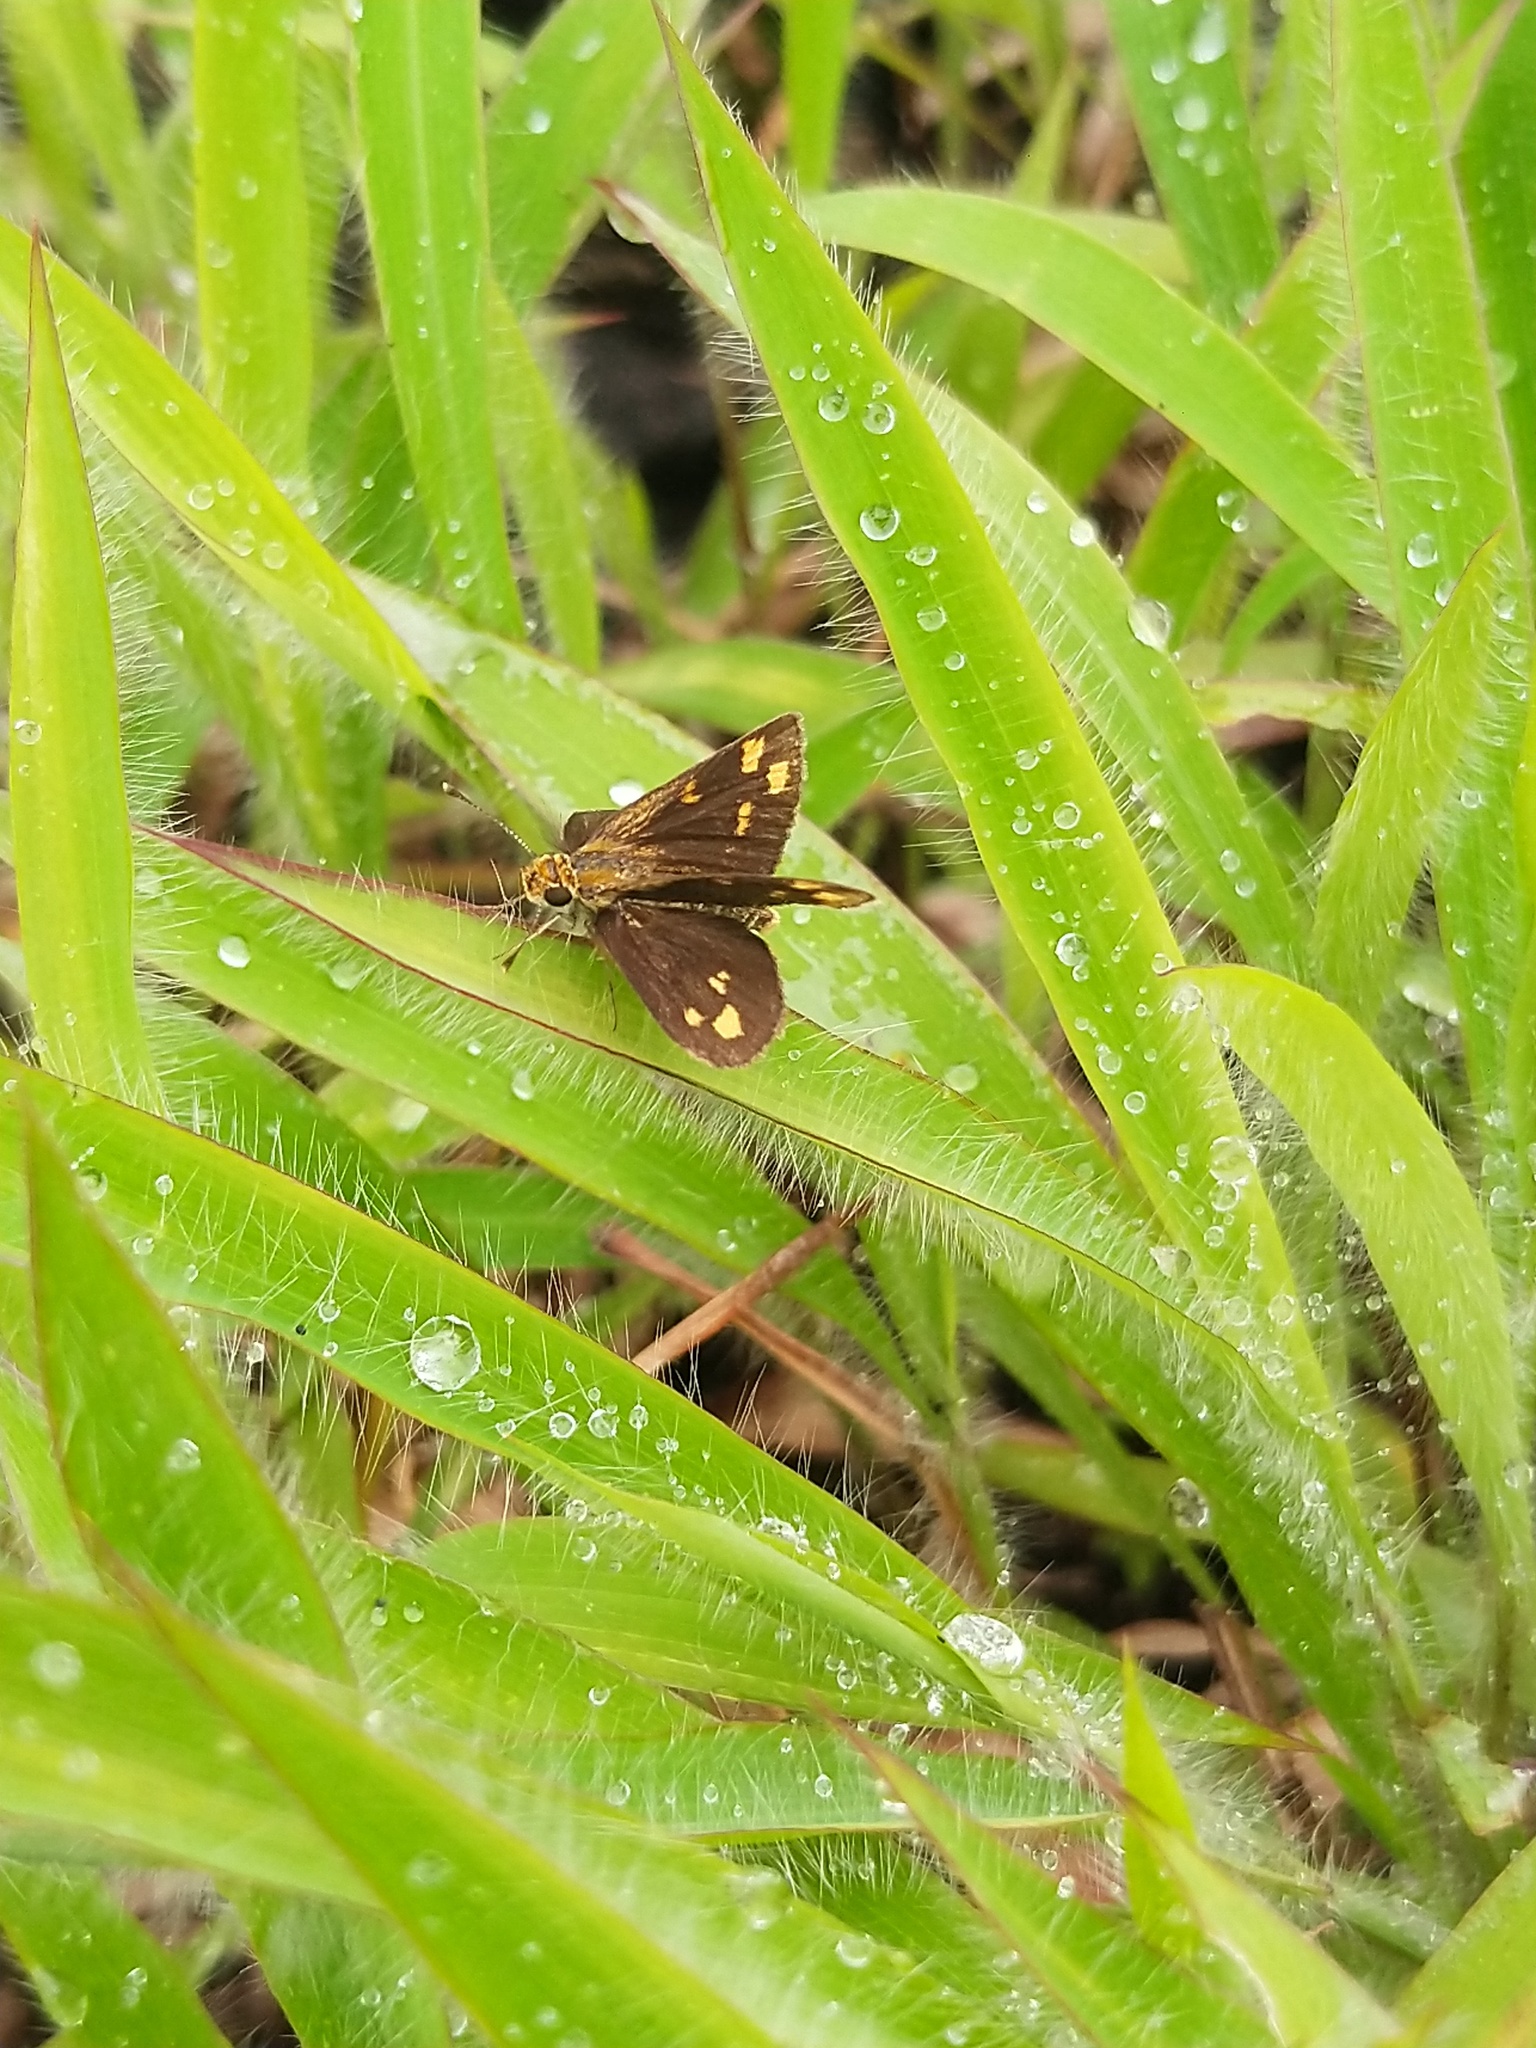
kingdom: Animalia
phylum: Arthropoda
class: Insecta
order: Lepidoptera
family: Hesperiidae
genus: Taractrocera
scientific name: Taractrocera ceramas
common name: Tamil grass dart
